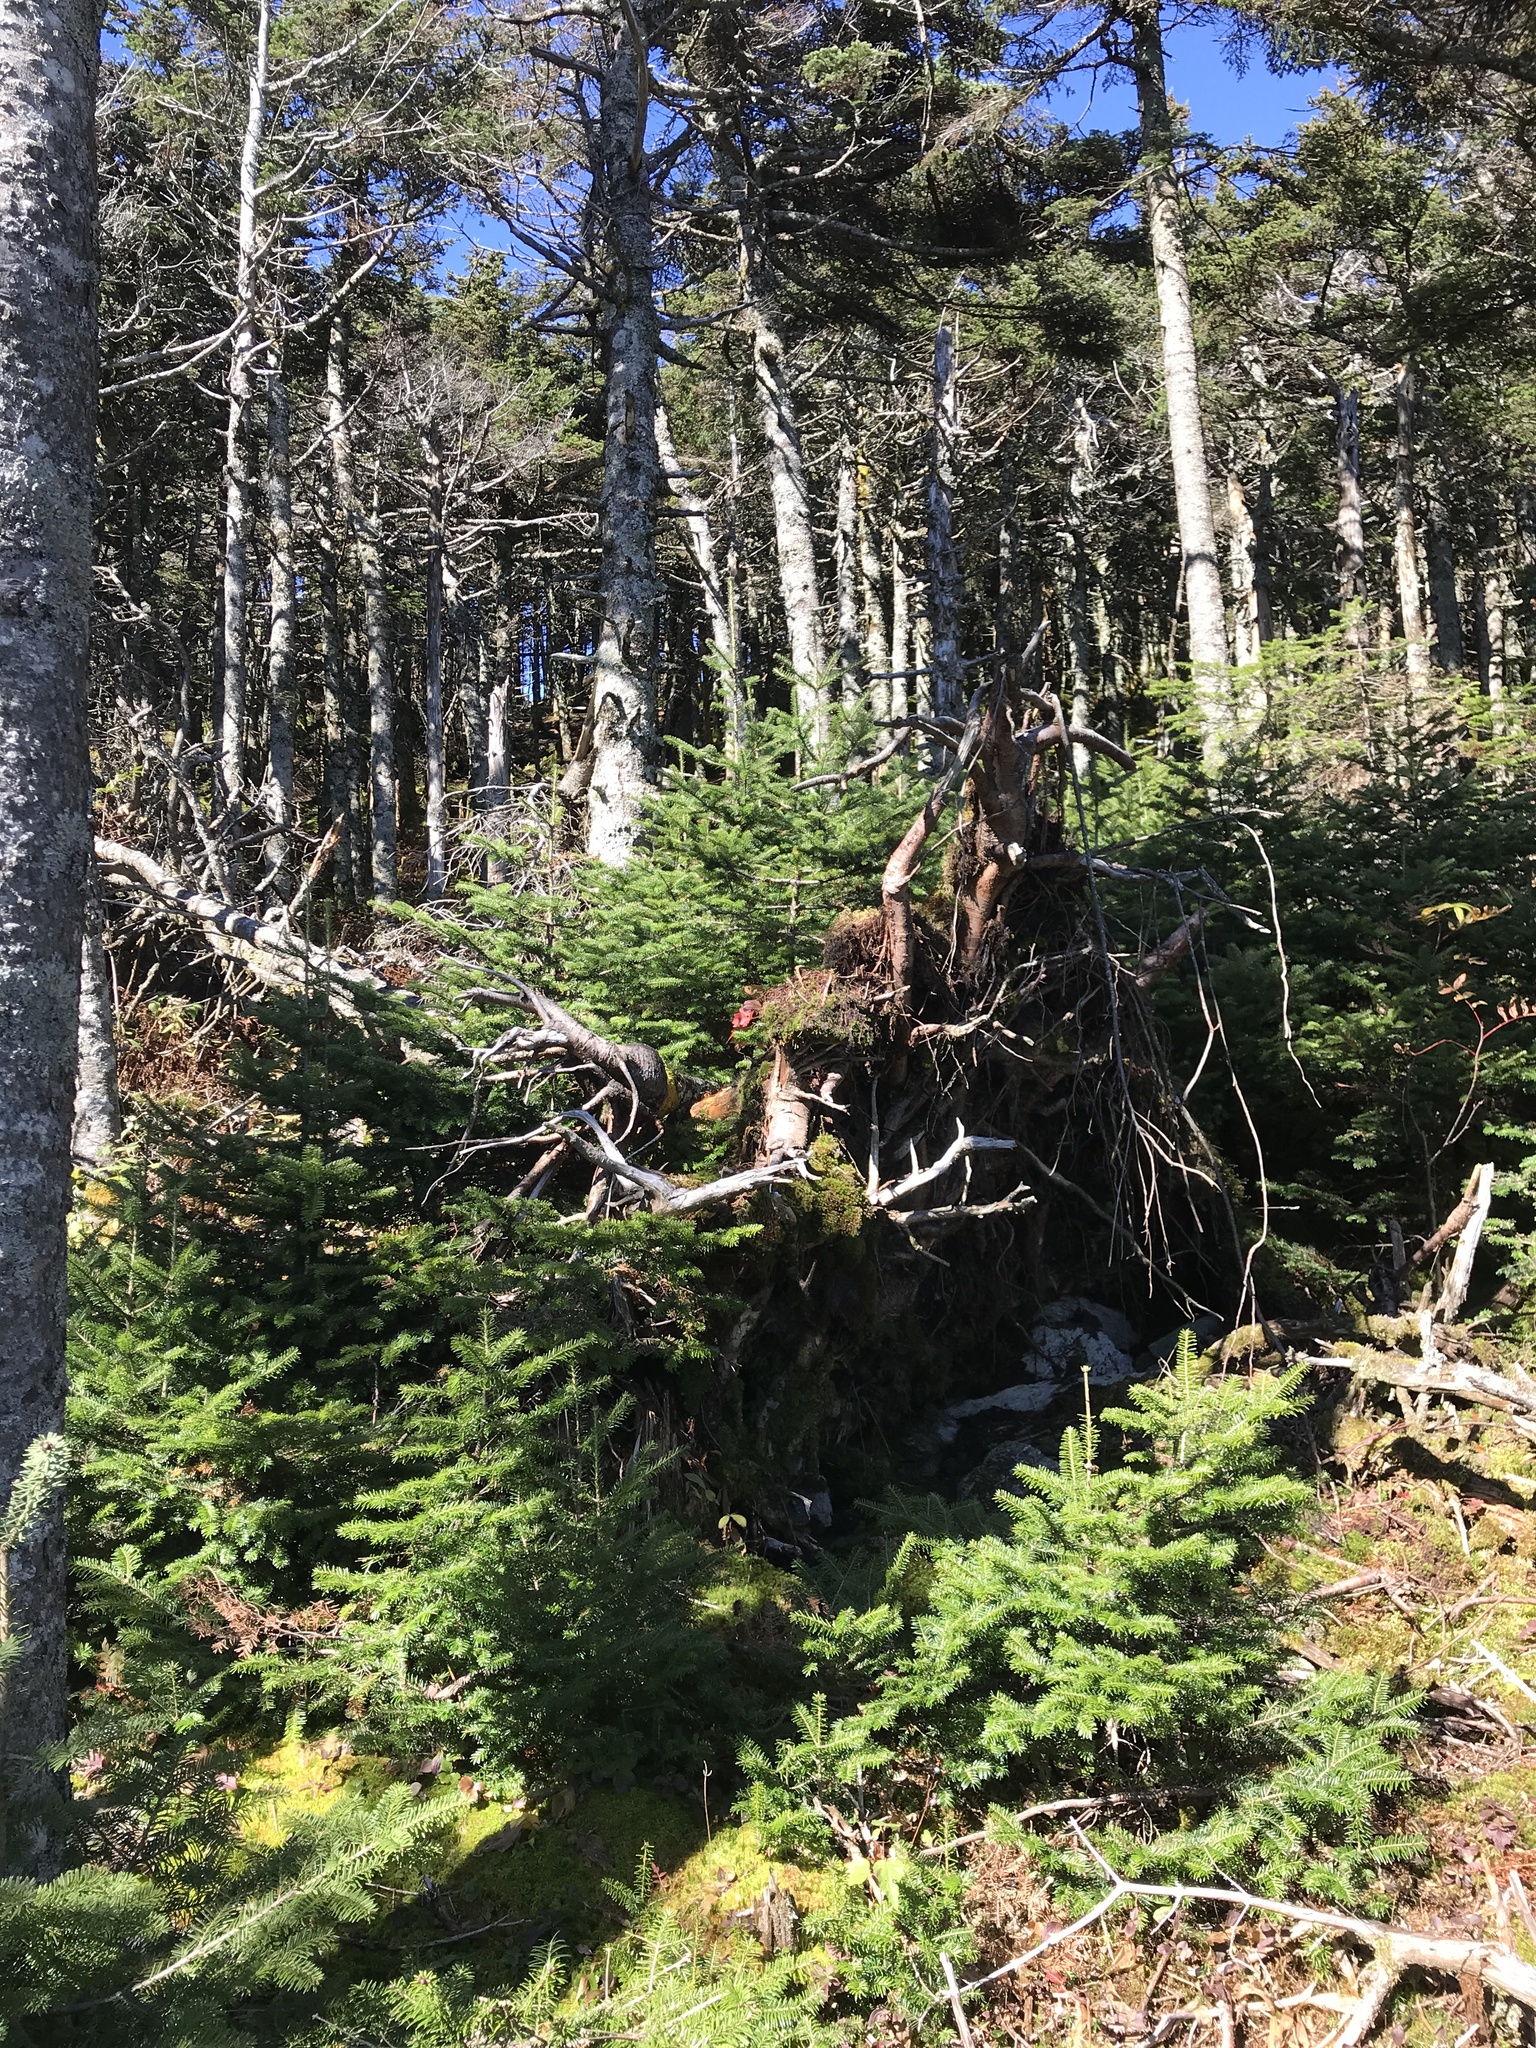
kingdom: Plantae
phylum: Tracheophyta
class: Pinopsida
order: Pinales
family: Pinaceae
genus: Abies
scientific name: Abies balsamea
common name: Balsam fir
